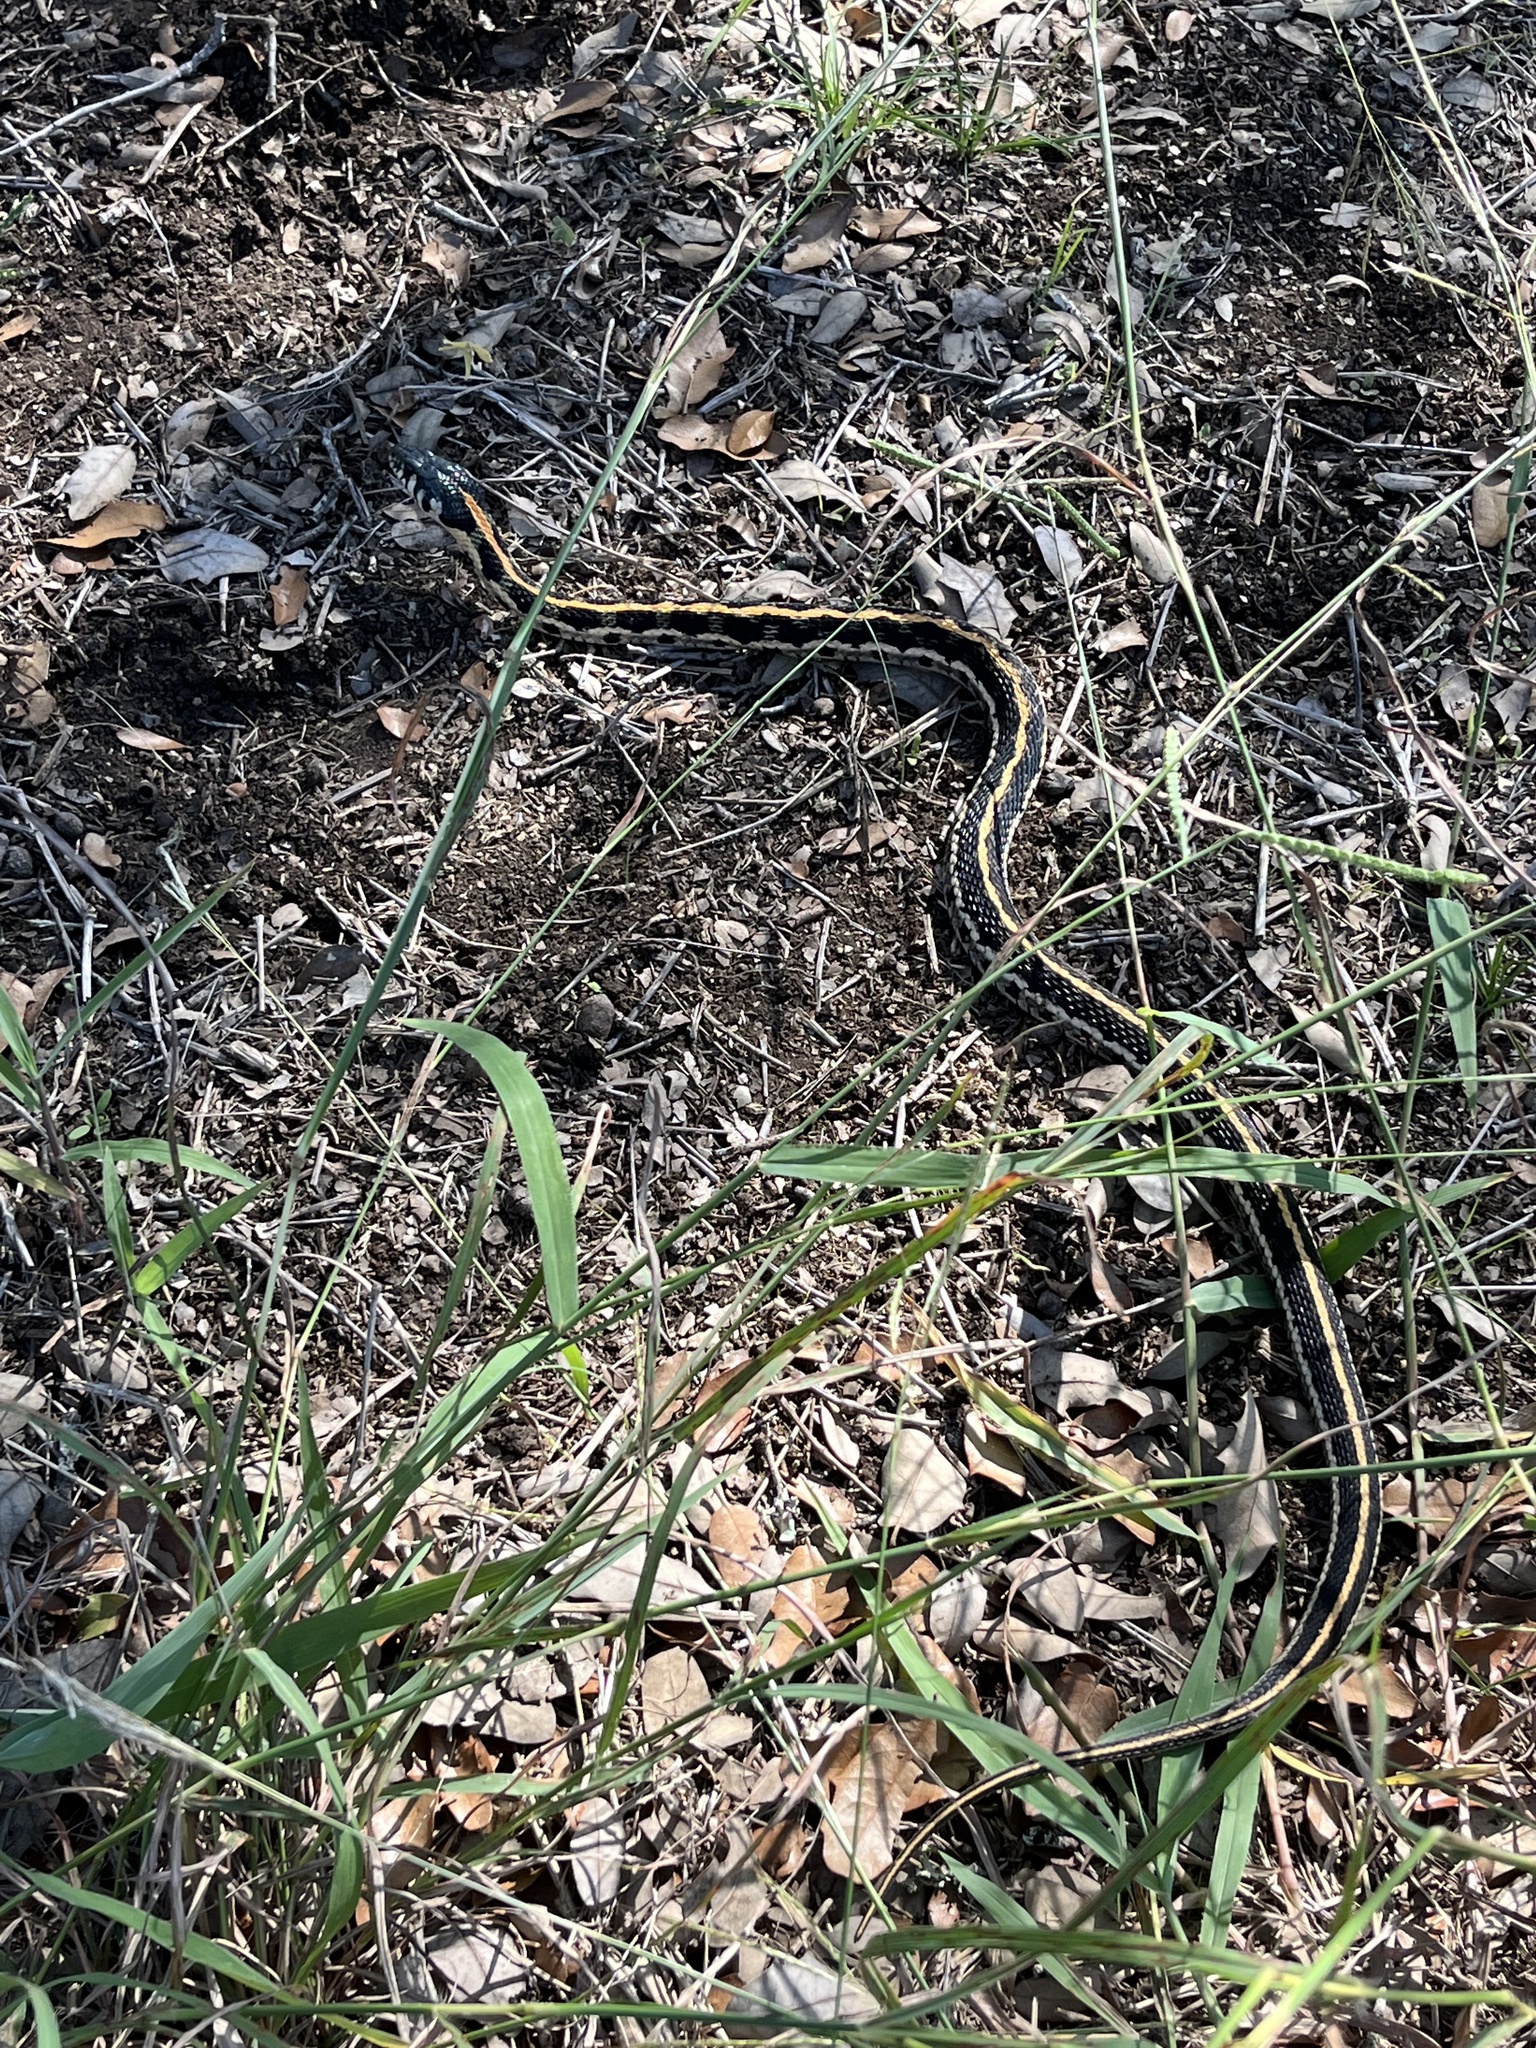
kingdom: Animalia
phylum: Chordata
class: Squamata
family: Colubridae
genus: Thamnophis
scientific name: Thamnophis cyrtopsis
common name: Black-necked gartersnake
